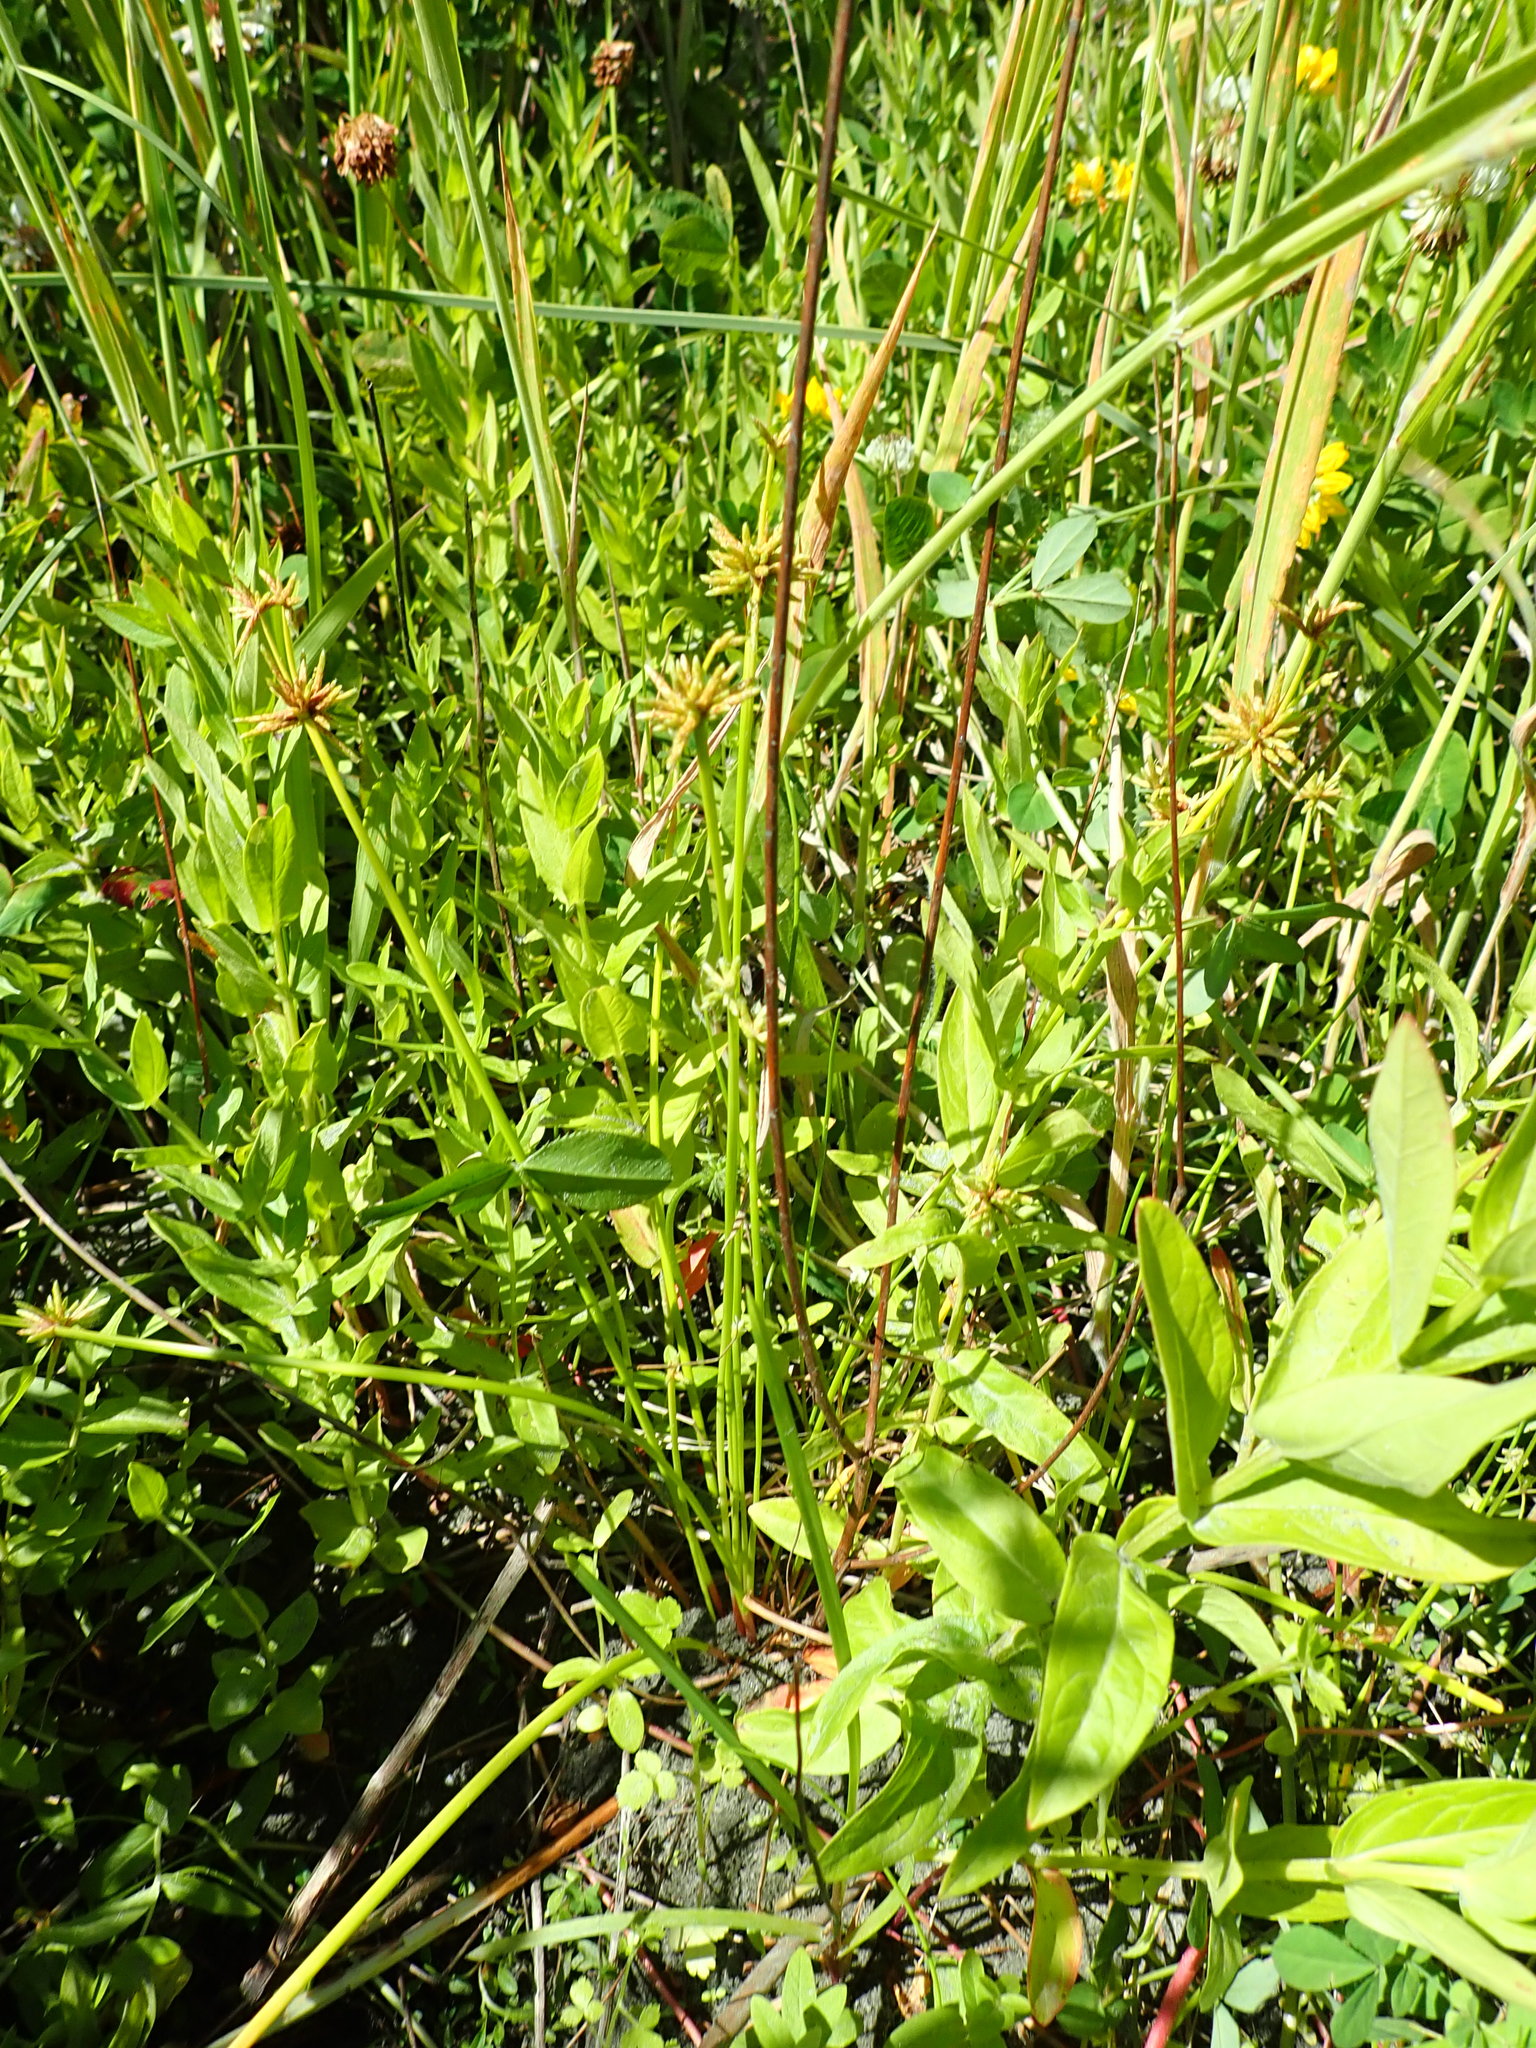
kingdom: Plantae
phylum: Tracheophyta
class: Liliopsida
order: Poales
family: Cyperaceae
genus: Isolepis
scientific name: Isolepis prolifera
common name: Proliferating bulrush
